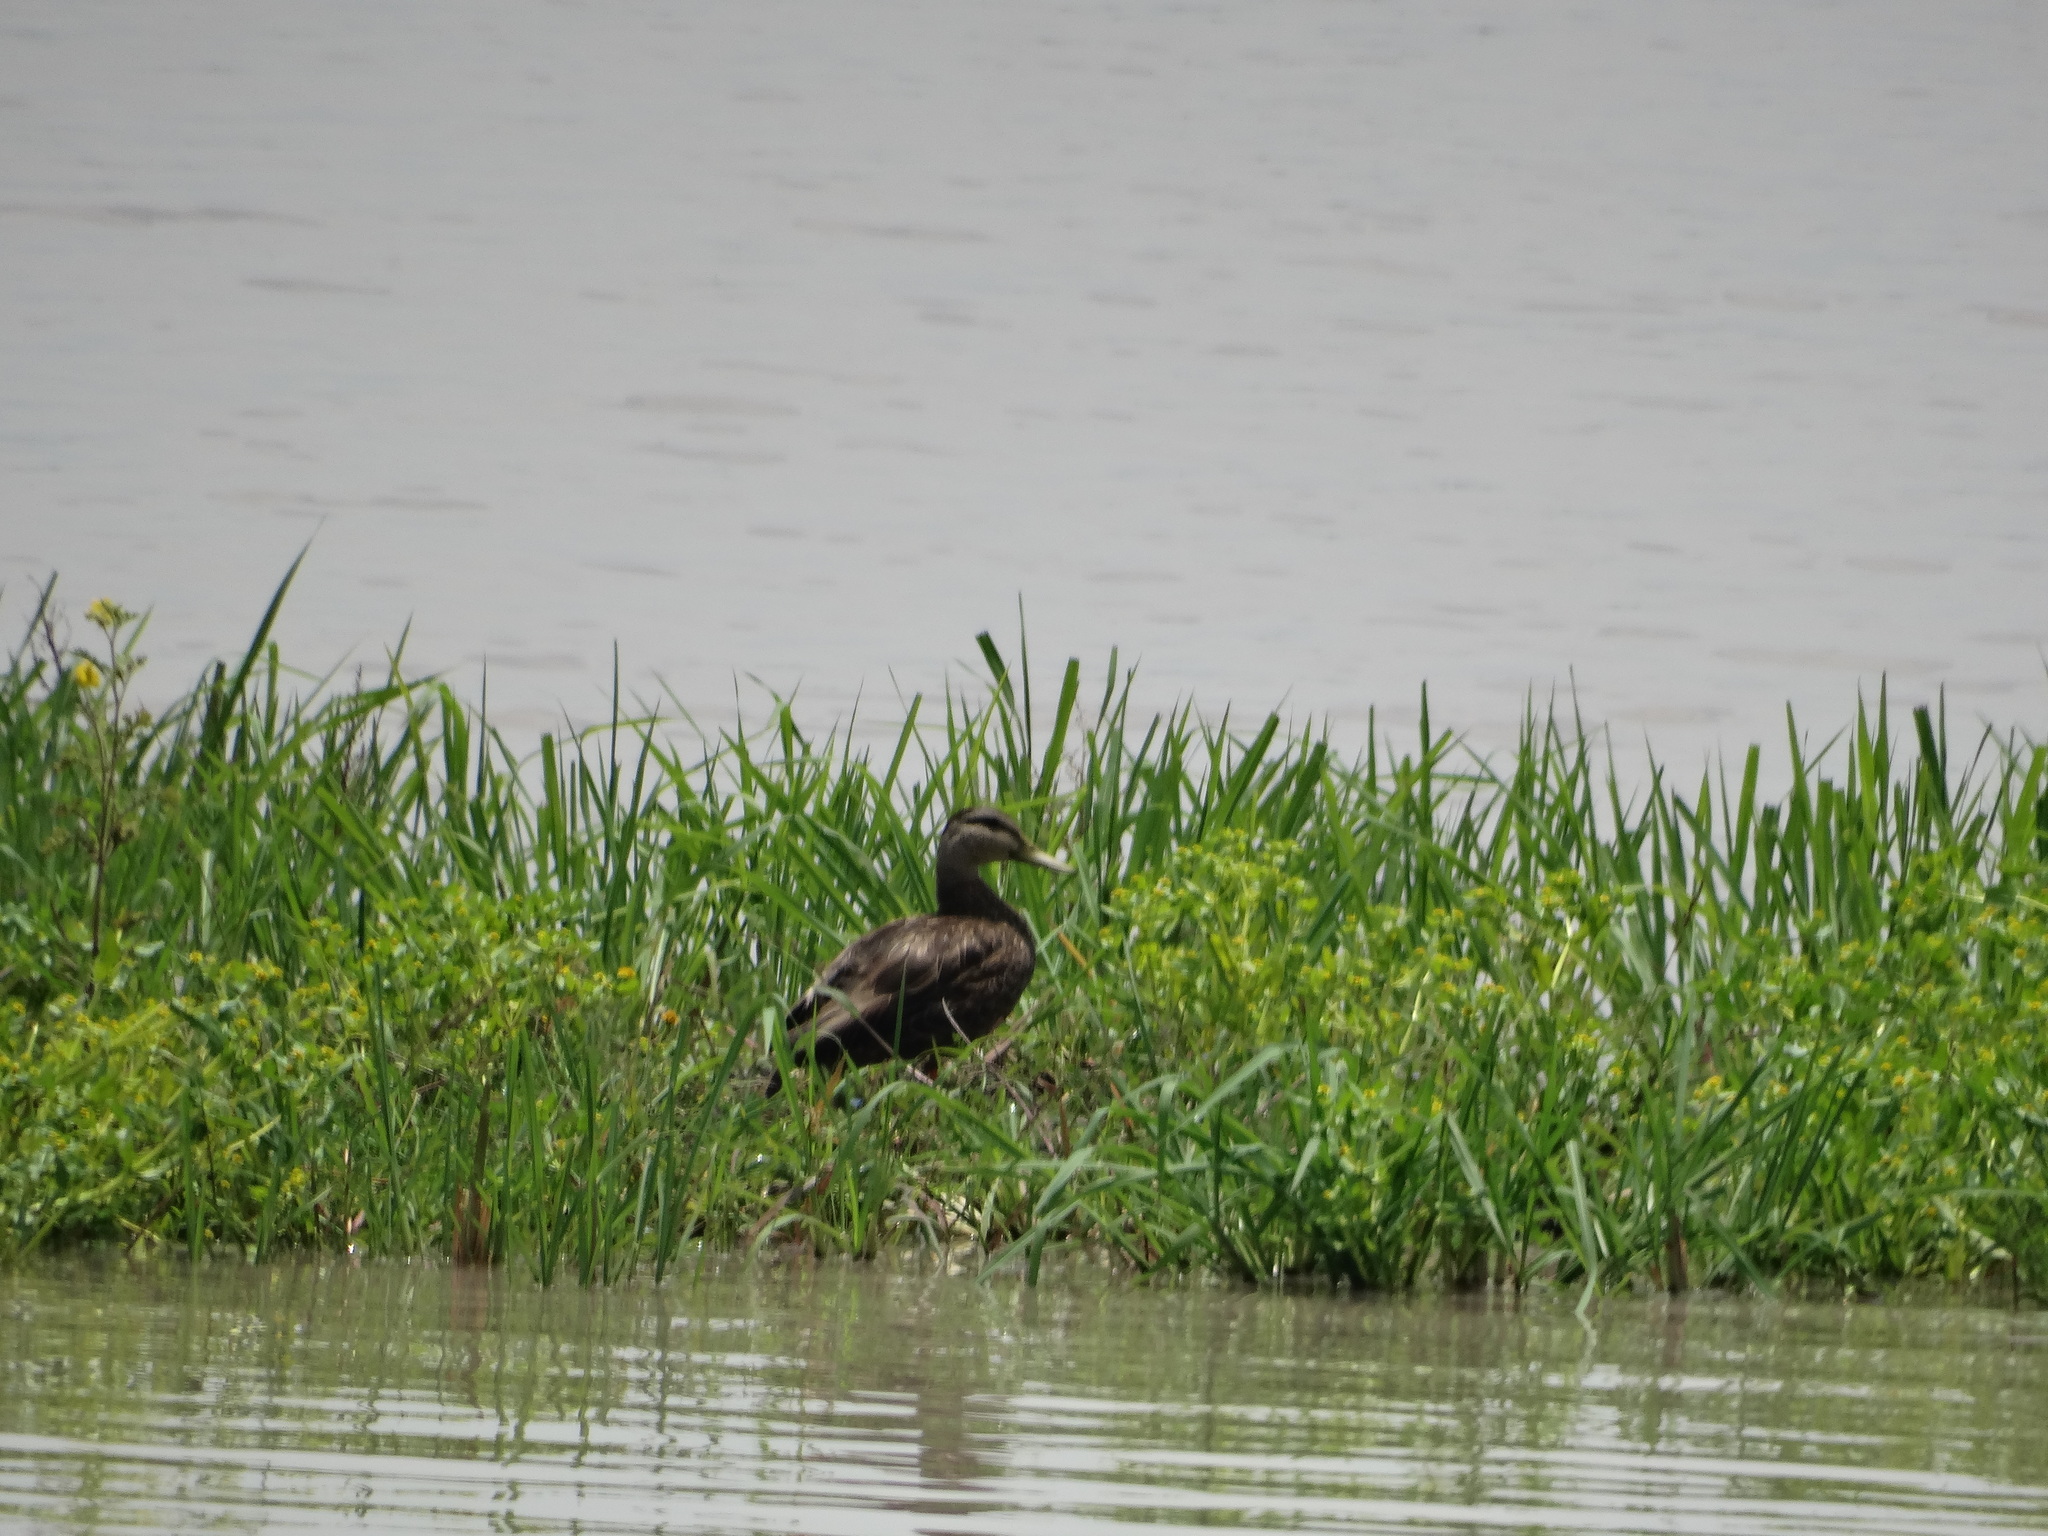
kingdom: Animalia
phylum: Chordata
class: Aves
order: Anseriformes
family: Anatidae
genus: Anas
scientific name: Anas diazi
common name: Mexican duck
